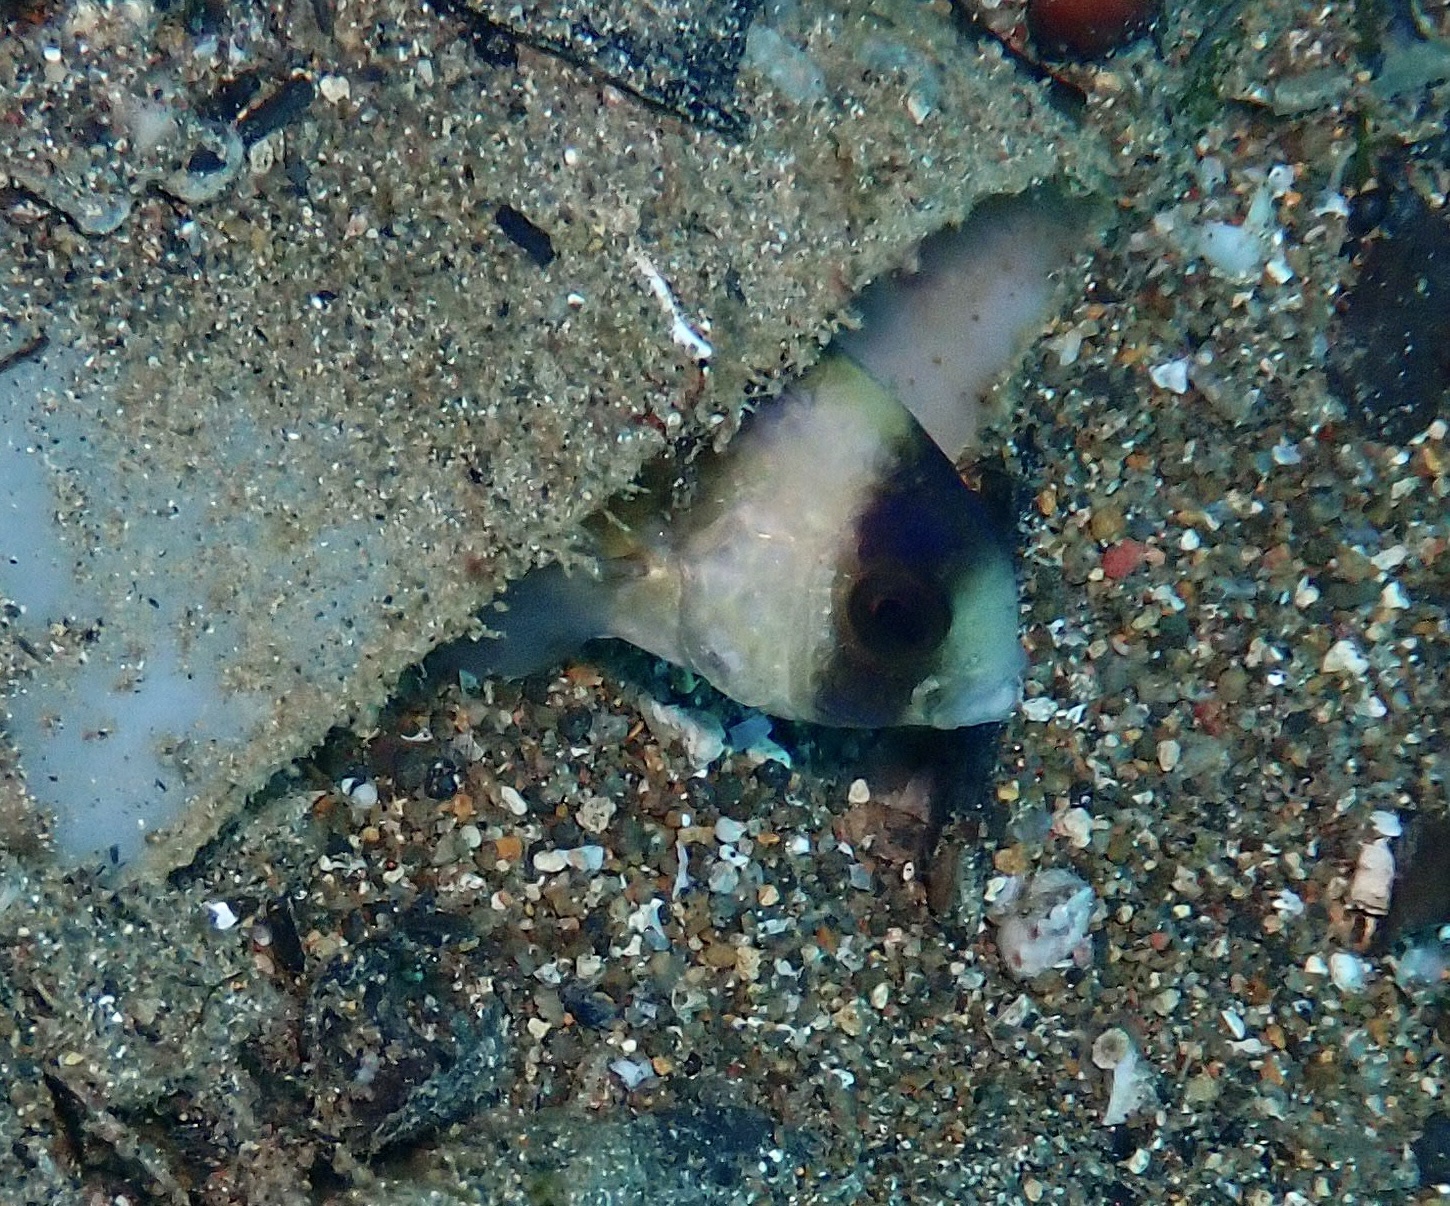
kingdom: Animalia
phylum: Chordata
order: Perciformes
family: Pomacentridae
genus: Amblypomacentrus
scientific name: Amblypomacentrus breviceps
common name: Black-banded demoiselle
